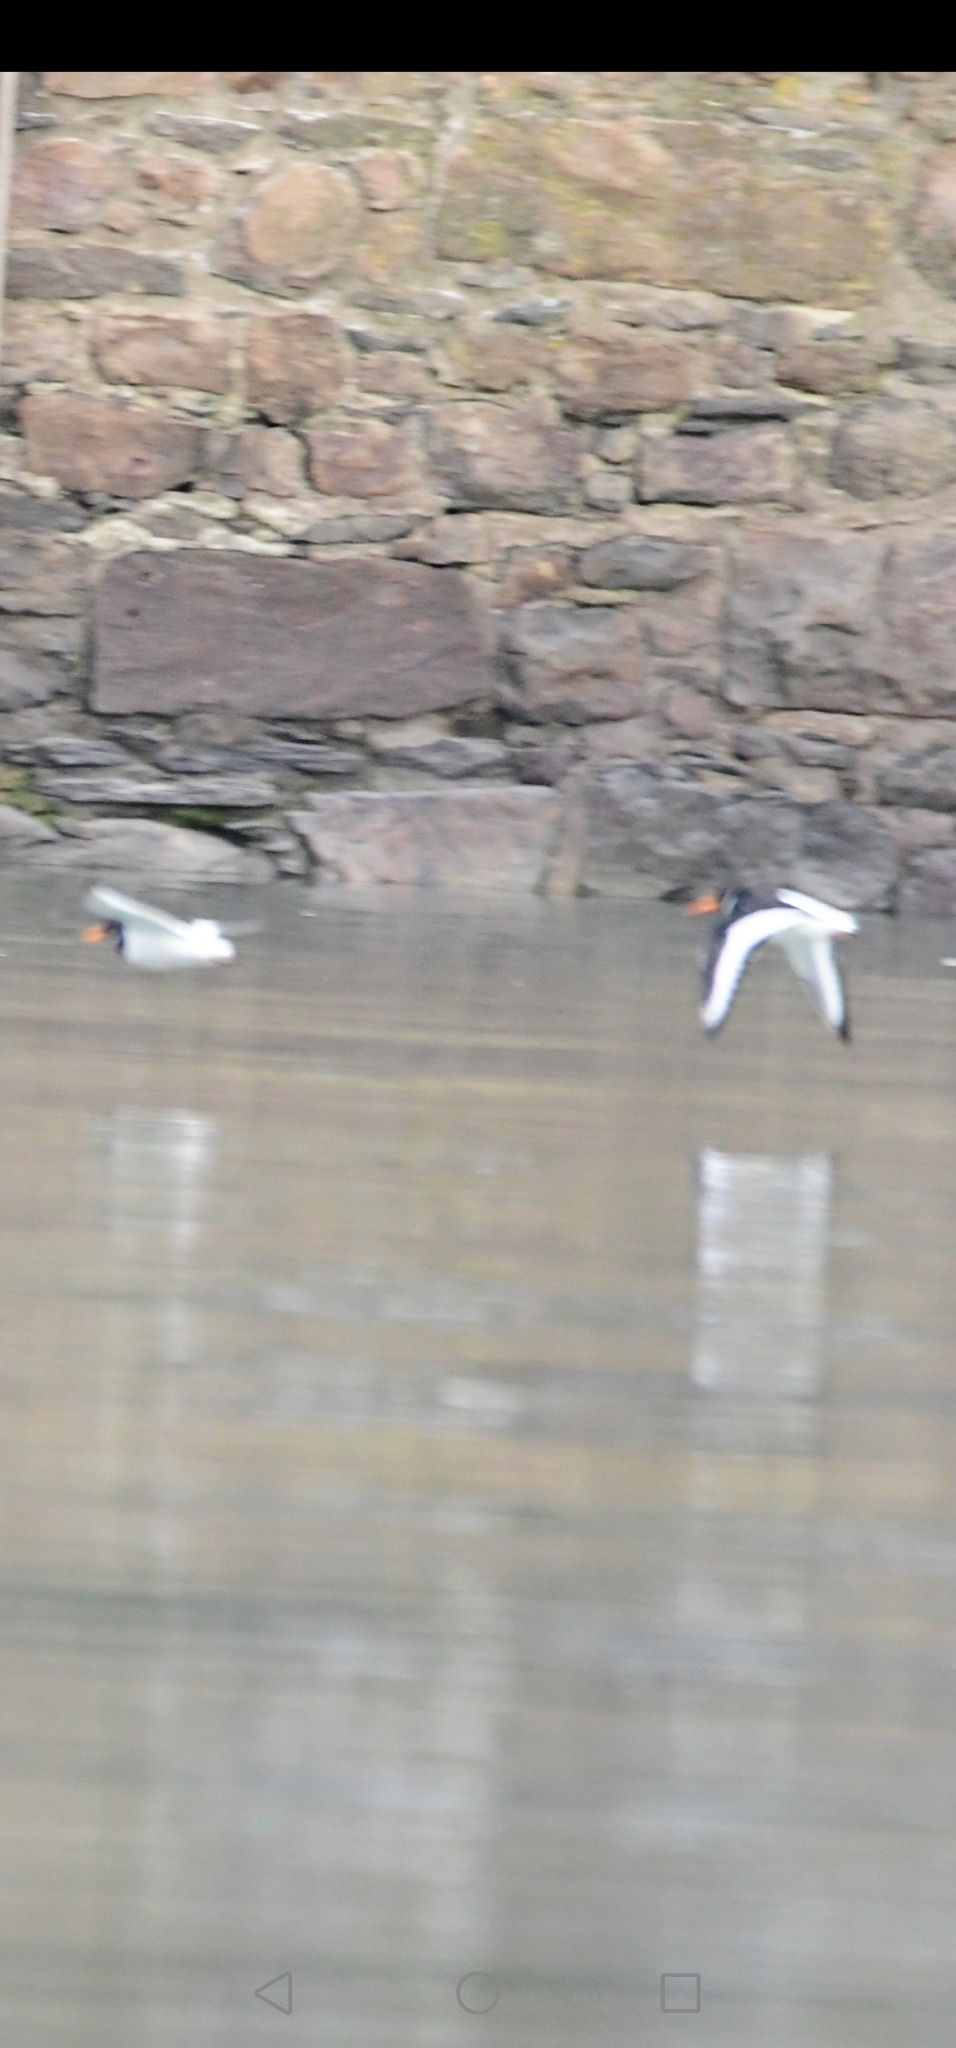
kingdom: Animalia
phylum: Chordata
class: Aves
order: Charadriiformes
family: Haematopodidae
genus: Haematopus
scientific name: Haematopus ostralegus
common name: Eurasian oystercatcher
